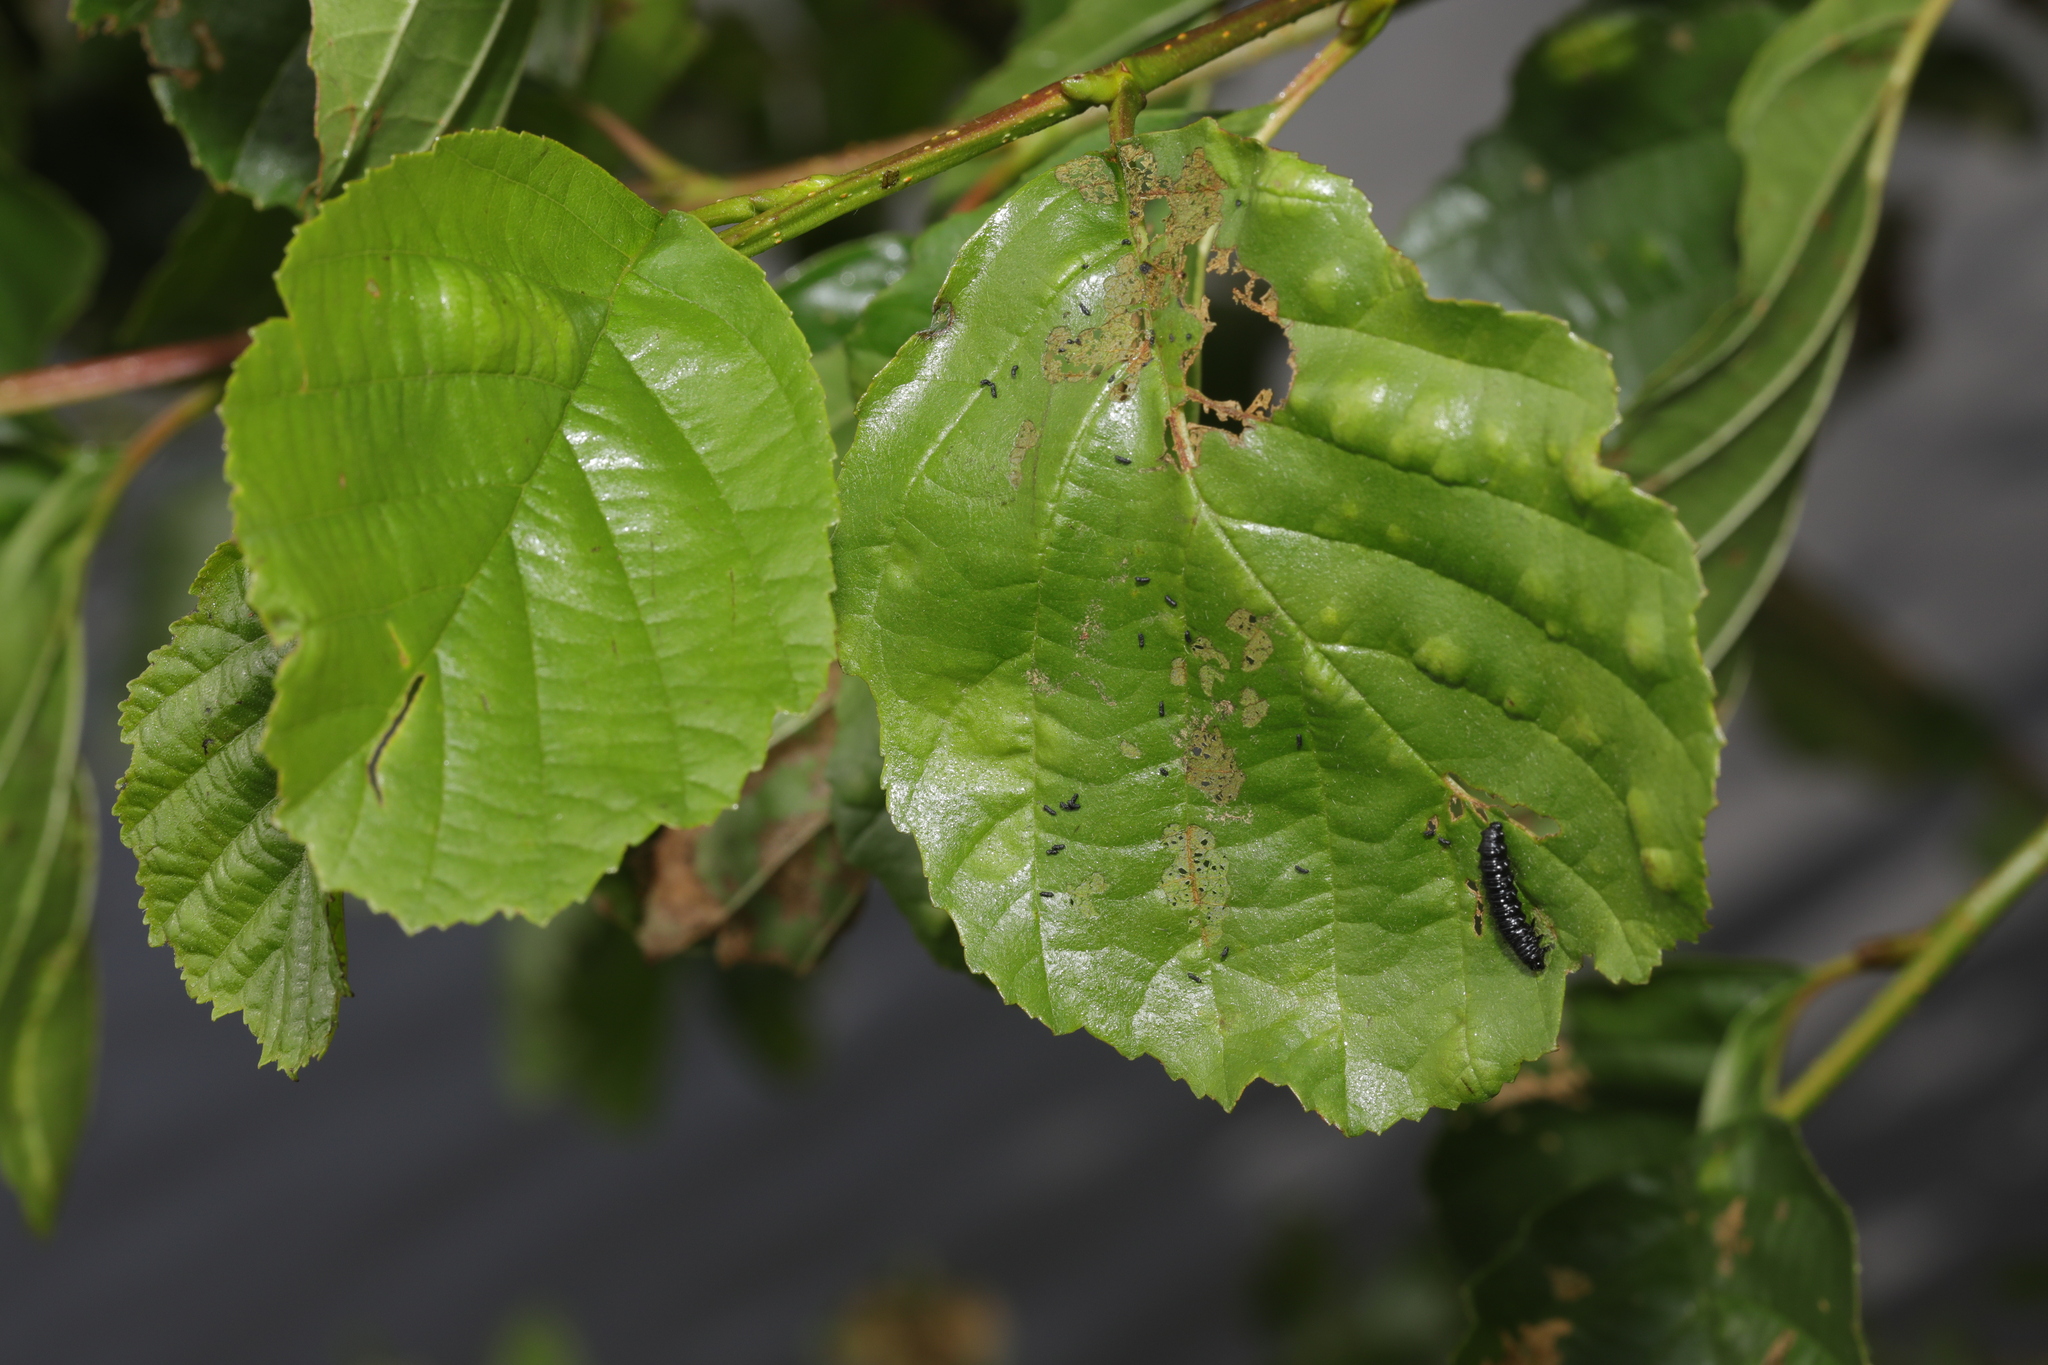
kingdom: Plantae
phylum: Tracheophyta
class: Magnoliopsida
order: Fagales
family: Betulaceae
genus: Alnus
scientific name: Alnus glutinosa
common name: Black alder
